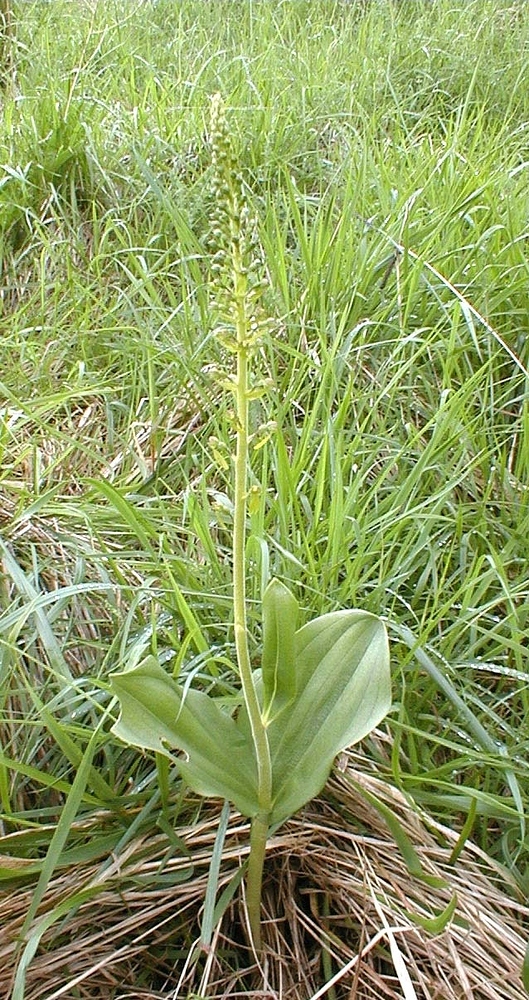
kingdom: Plantae
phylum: Tracheophyta
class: Liliopsida
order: Asparagales
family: Orchidaceae
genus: Neottia
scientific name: Neottia ovata
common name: Common twayblade
